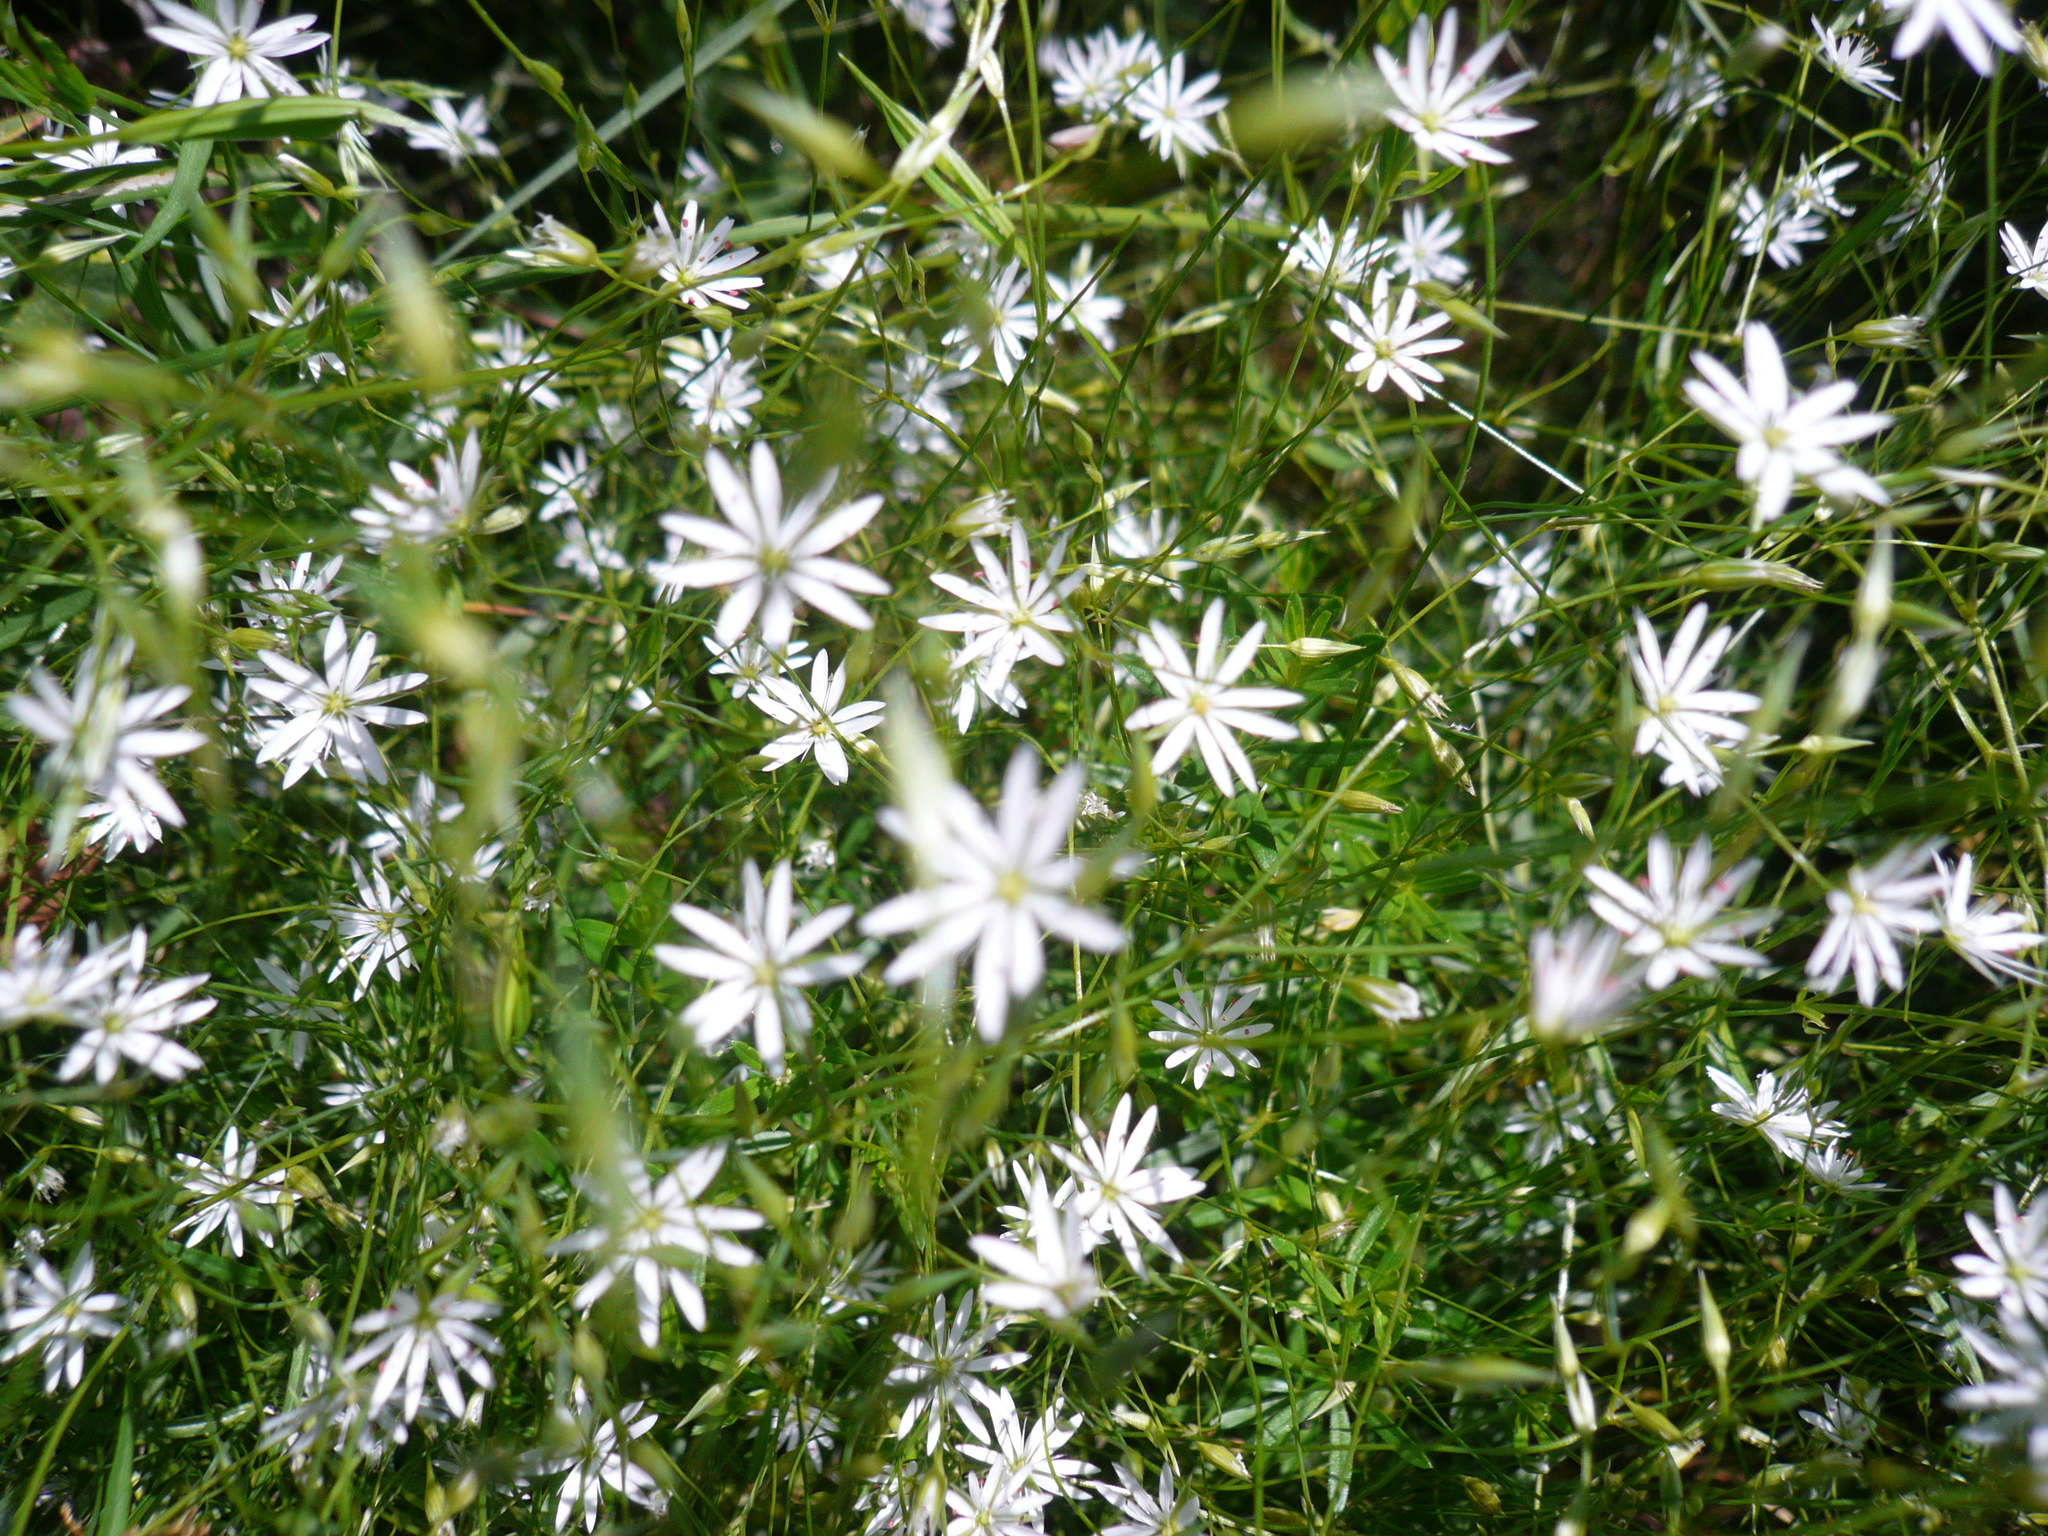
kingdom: Plantae
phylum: Tracheophyta
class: Magnoliopsida
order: Caryophyllales
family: Caryophyllaceae
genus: Stellaria
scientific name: Stellaria graminea
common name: Grass-like starwort
